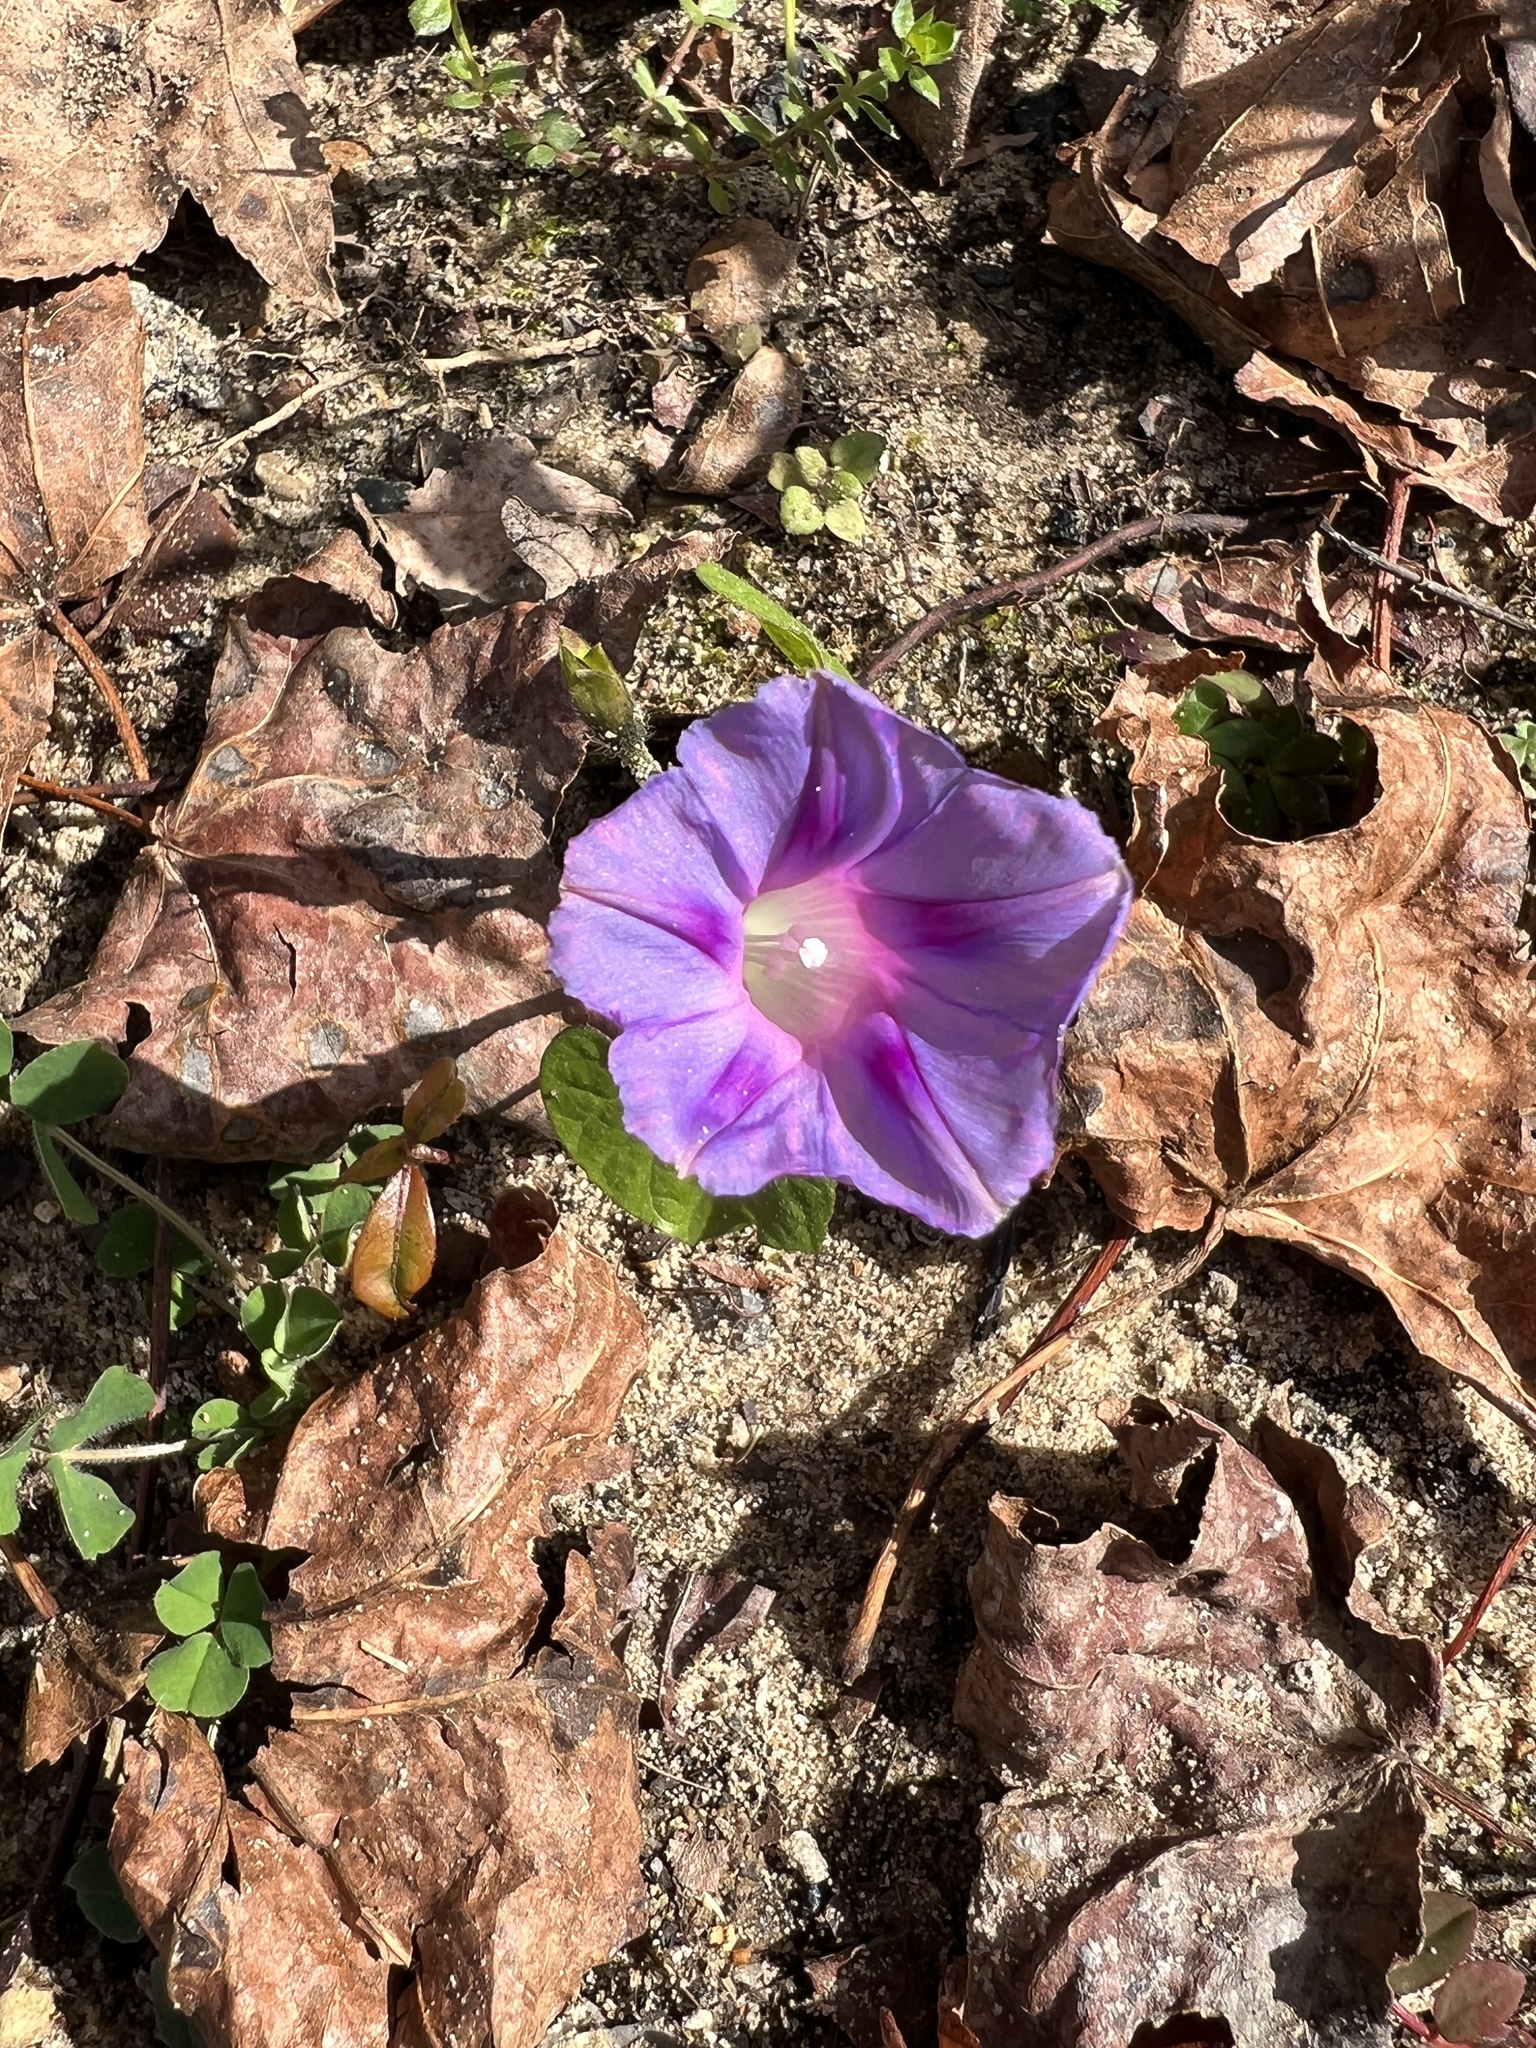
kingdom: Plantae
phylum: Tracheophyta
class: Magnoliopsida
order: Solanales
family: Convolvulaceae
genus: Ipomoea
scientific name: Ipomoea purpurea
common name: Common morning-glory
